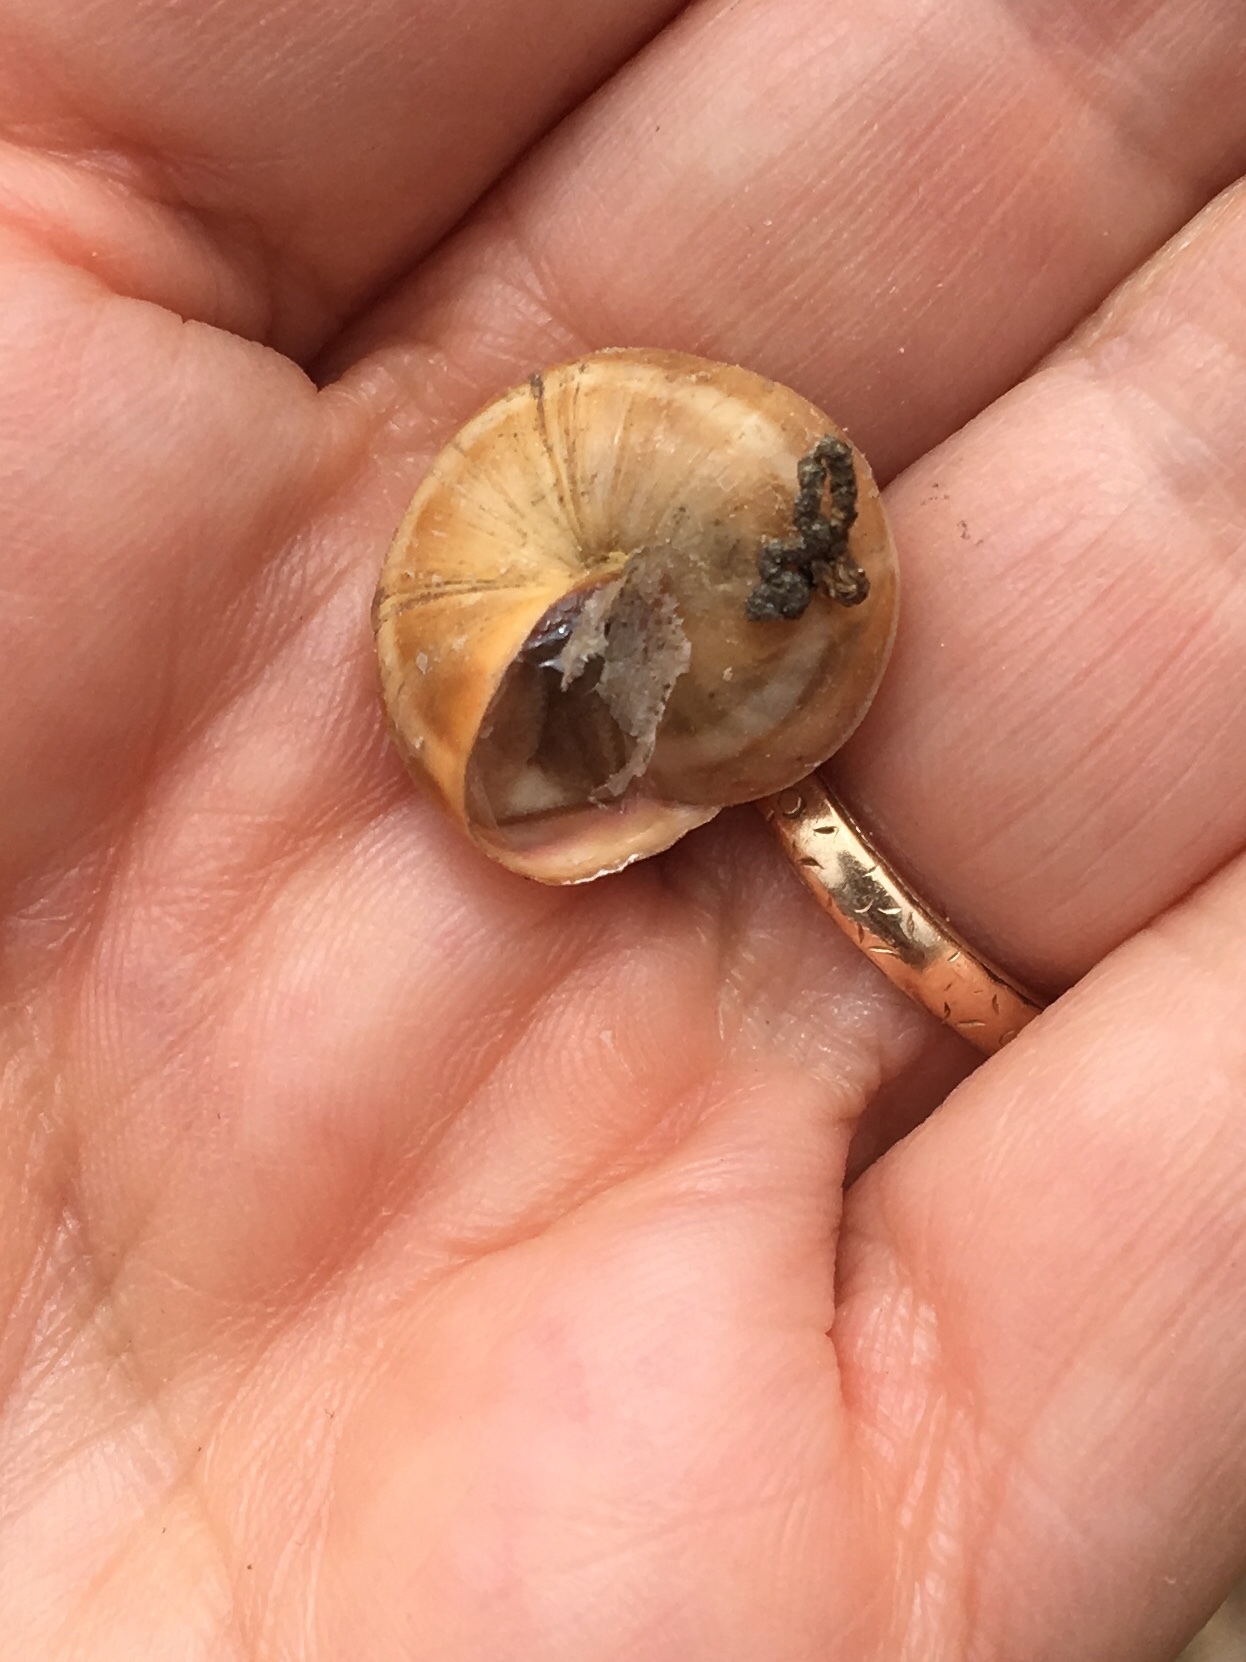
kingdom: Animalia
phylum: Mollusca
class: Gastropoda
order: Stylommatophora
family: Helicidae
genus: Theba
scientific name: Theba pisana
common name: White snail
